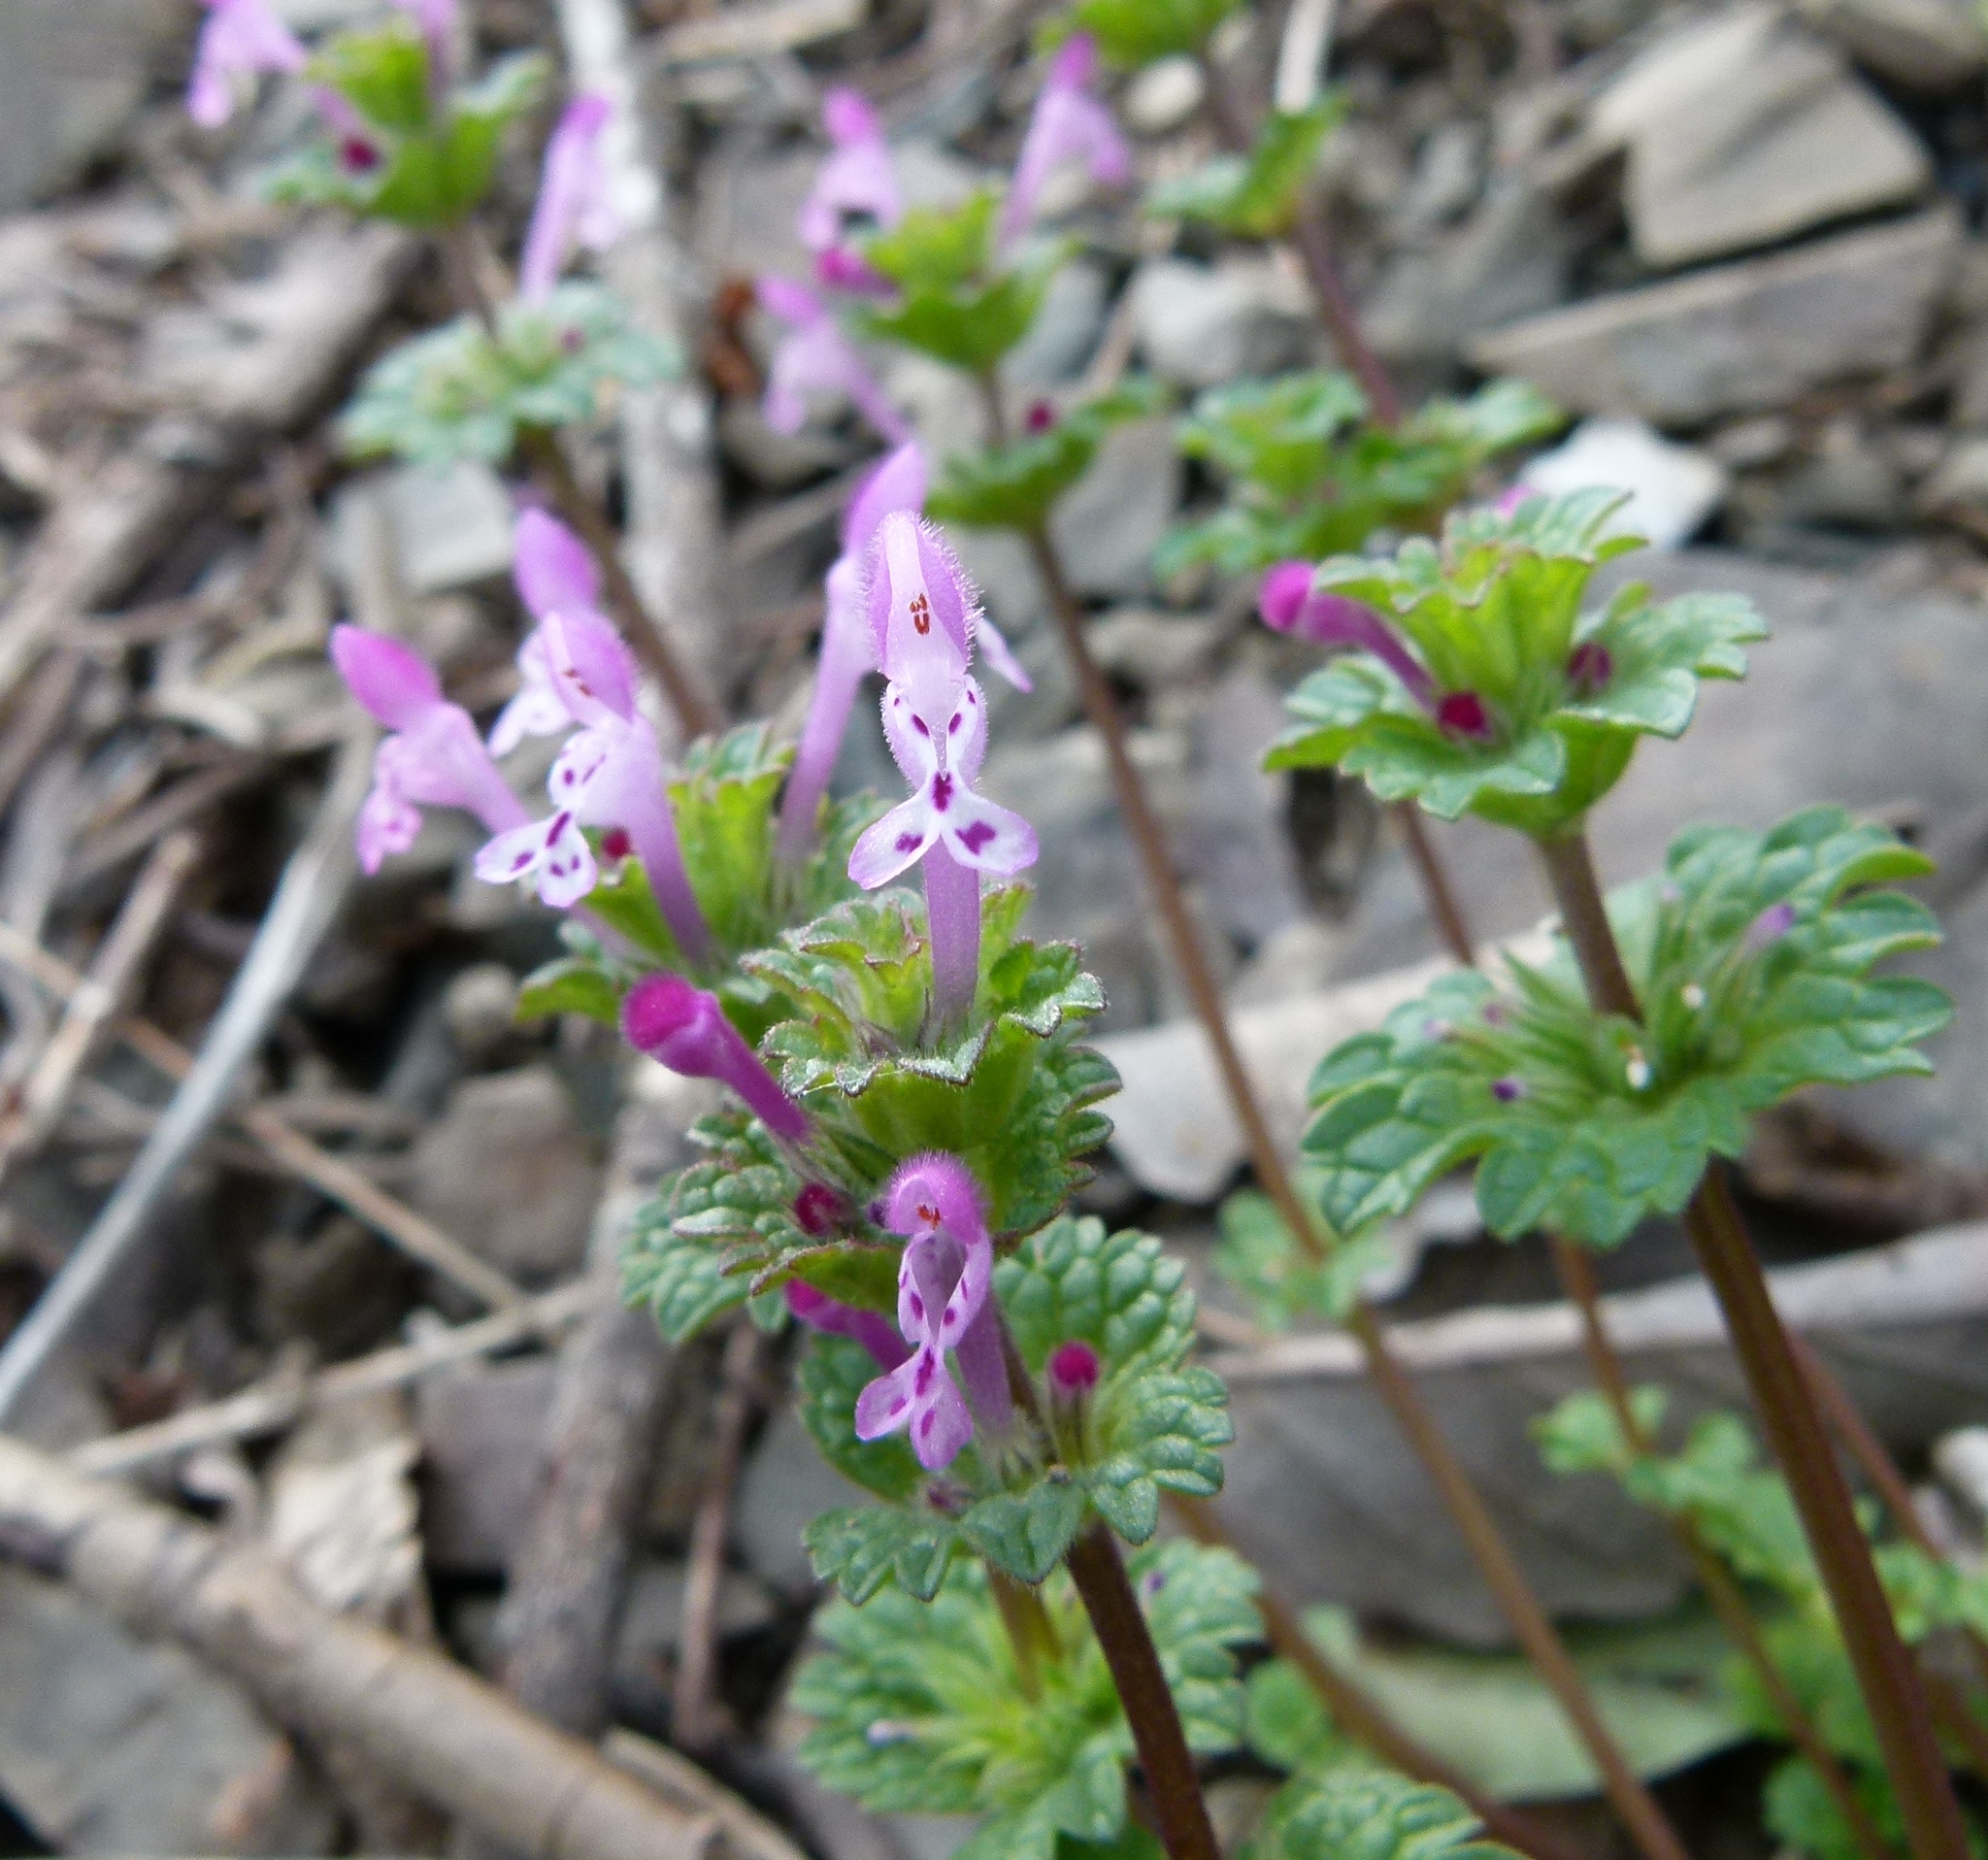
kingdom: Plantae
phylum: Tracheophyta
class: Magnoliopsida
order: Lamiales
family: Lamiaceae
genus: Lamium
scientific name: Lamium amplexicaule
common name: Henbit dead-nettle
